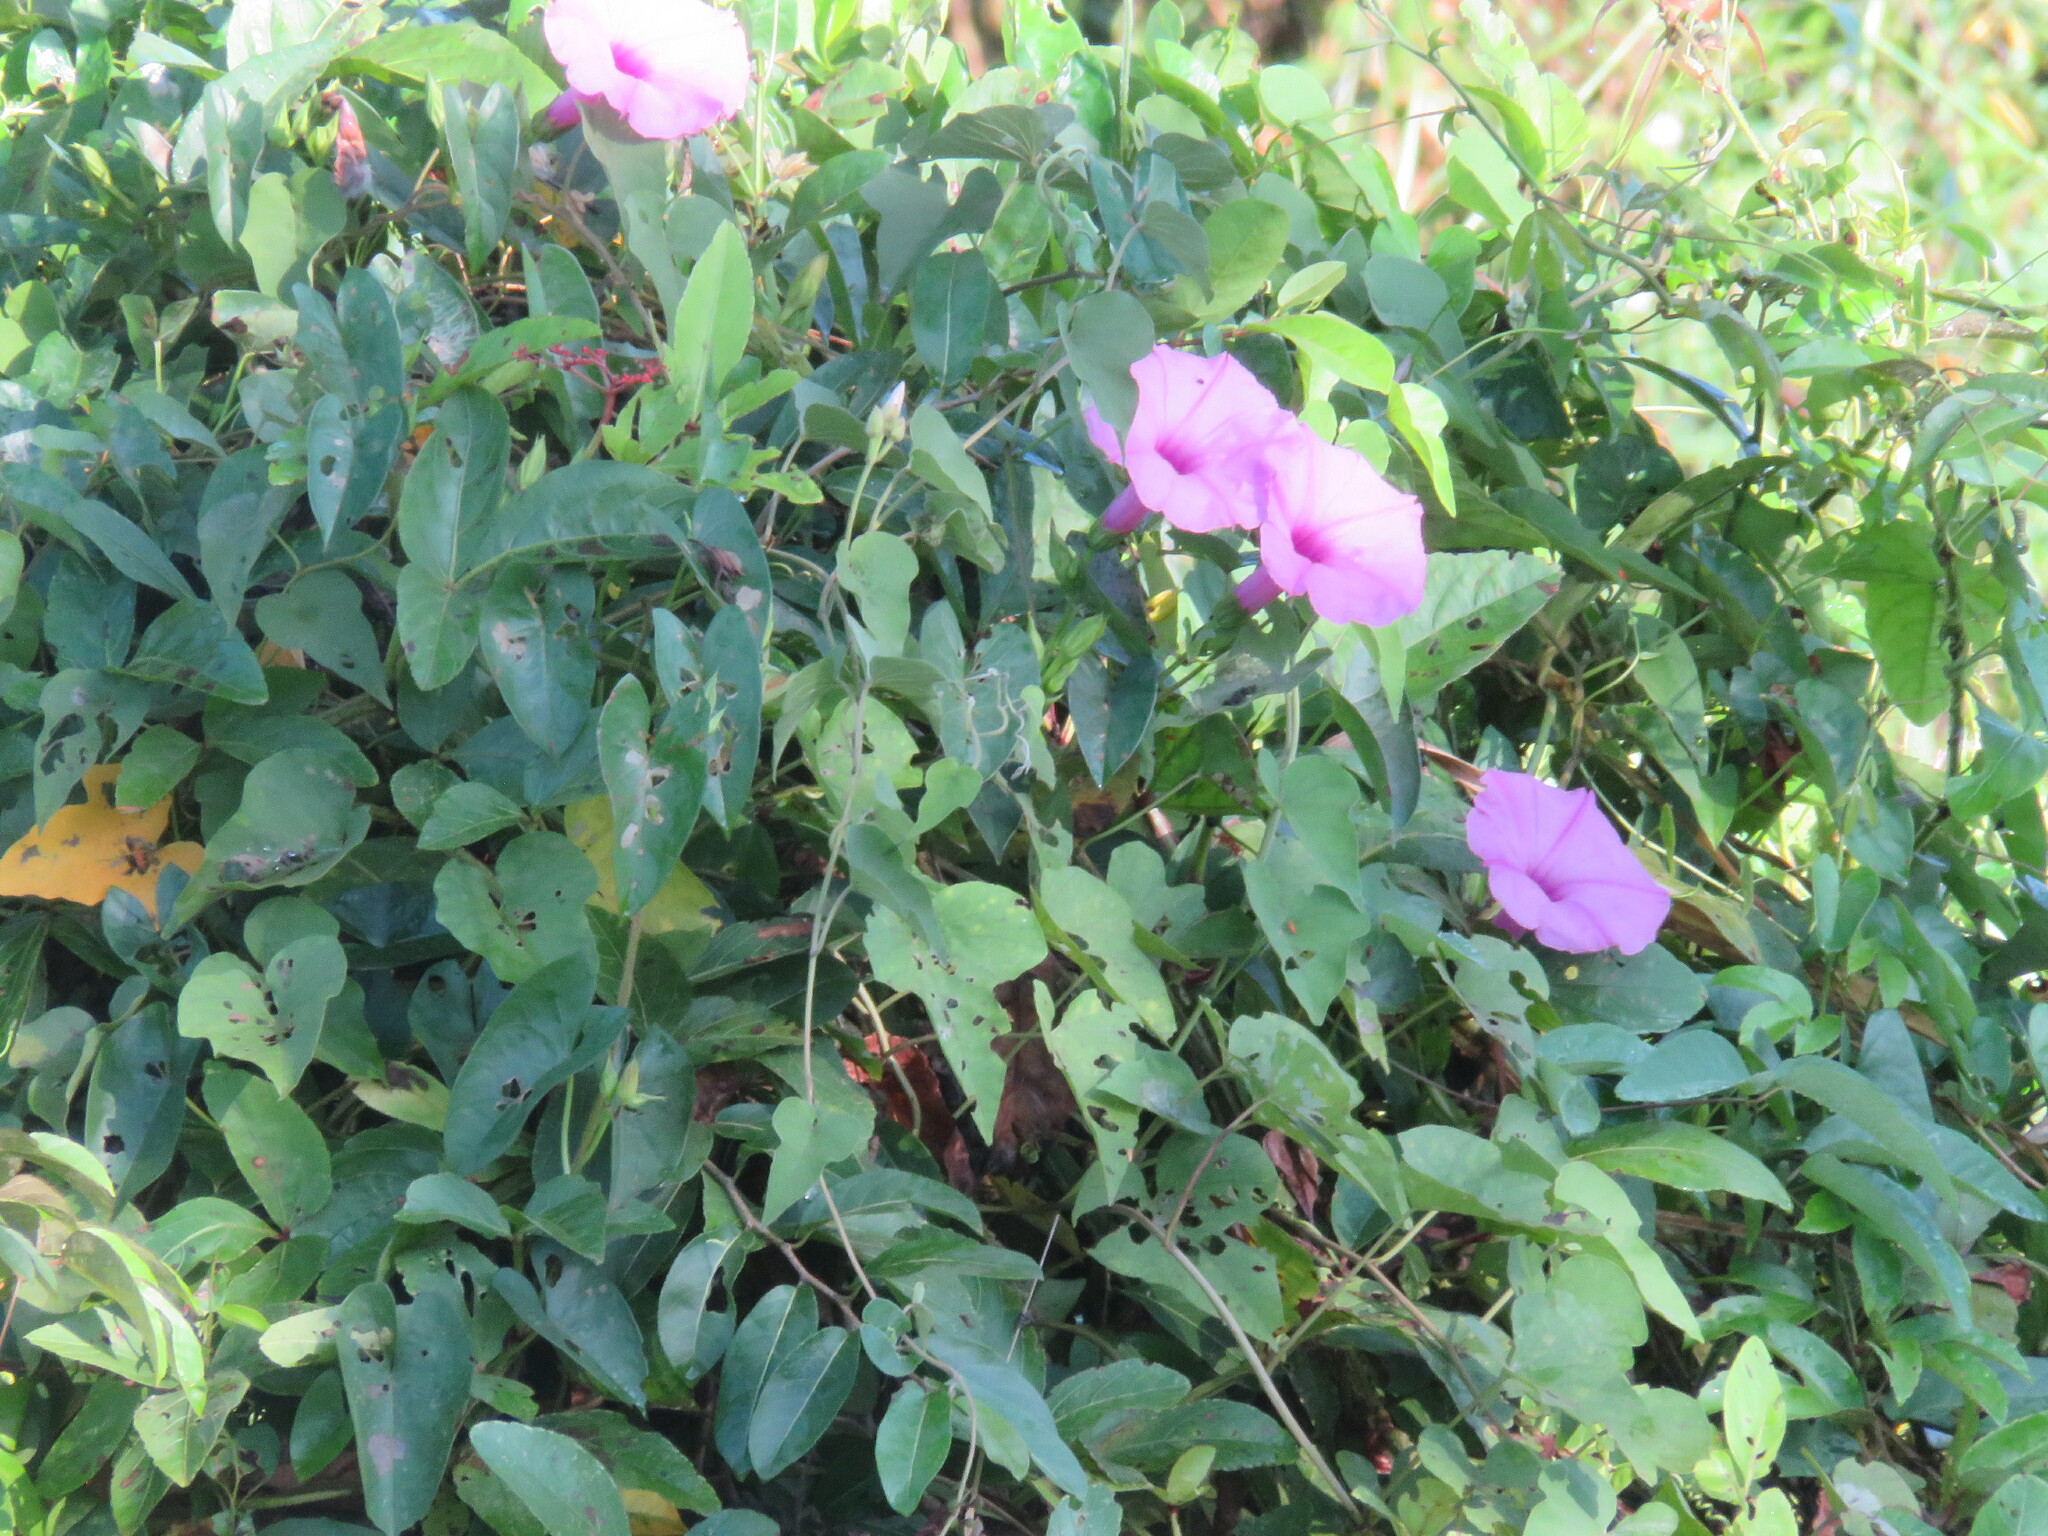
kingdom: Plantae
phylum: Tracheophyta
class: Magnoliopsida
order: Solanales
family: Convolvulaceae
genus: Ipomoea
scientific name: Ipomoea pedicellaris
